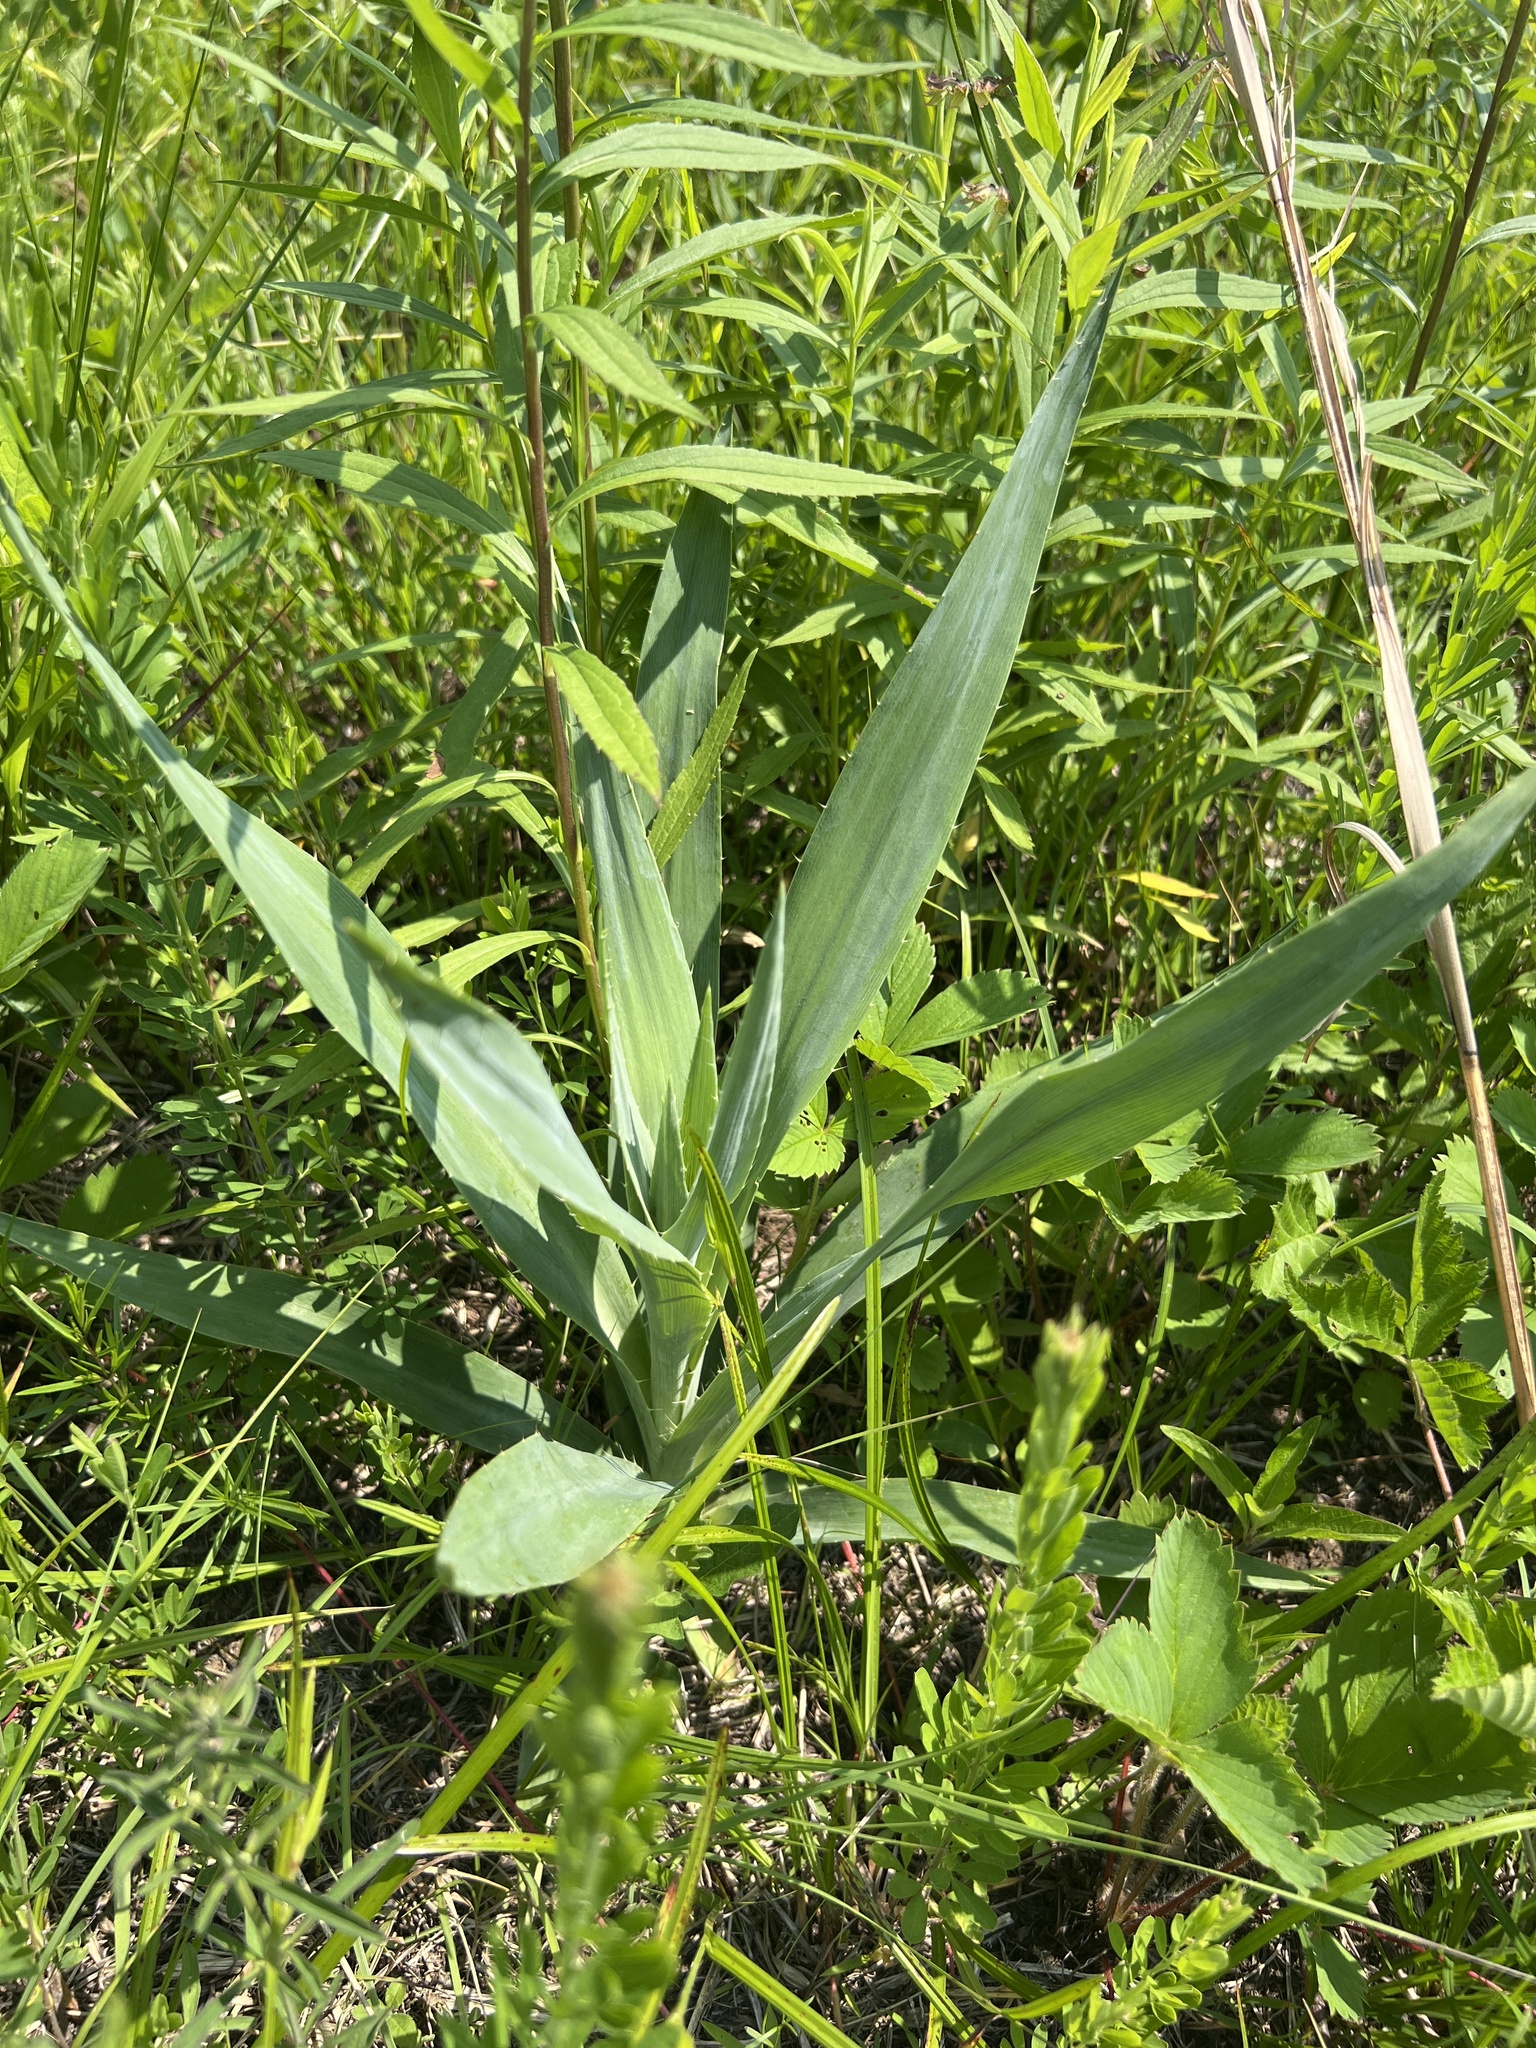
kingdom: Plantae
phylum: Tracheophyta
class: Magnoliopsida
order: Apiales
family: Apiaceae
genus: Eryngium
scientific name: Eryngium yuccifolium
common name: Button eryngo
